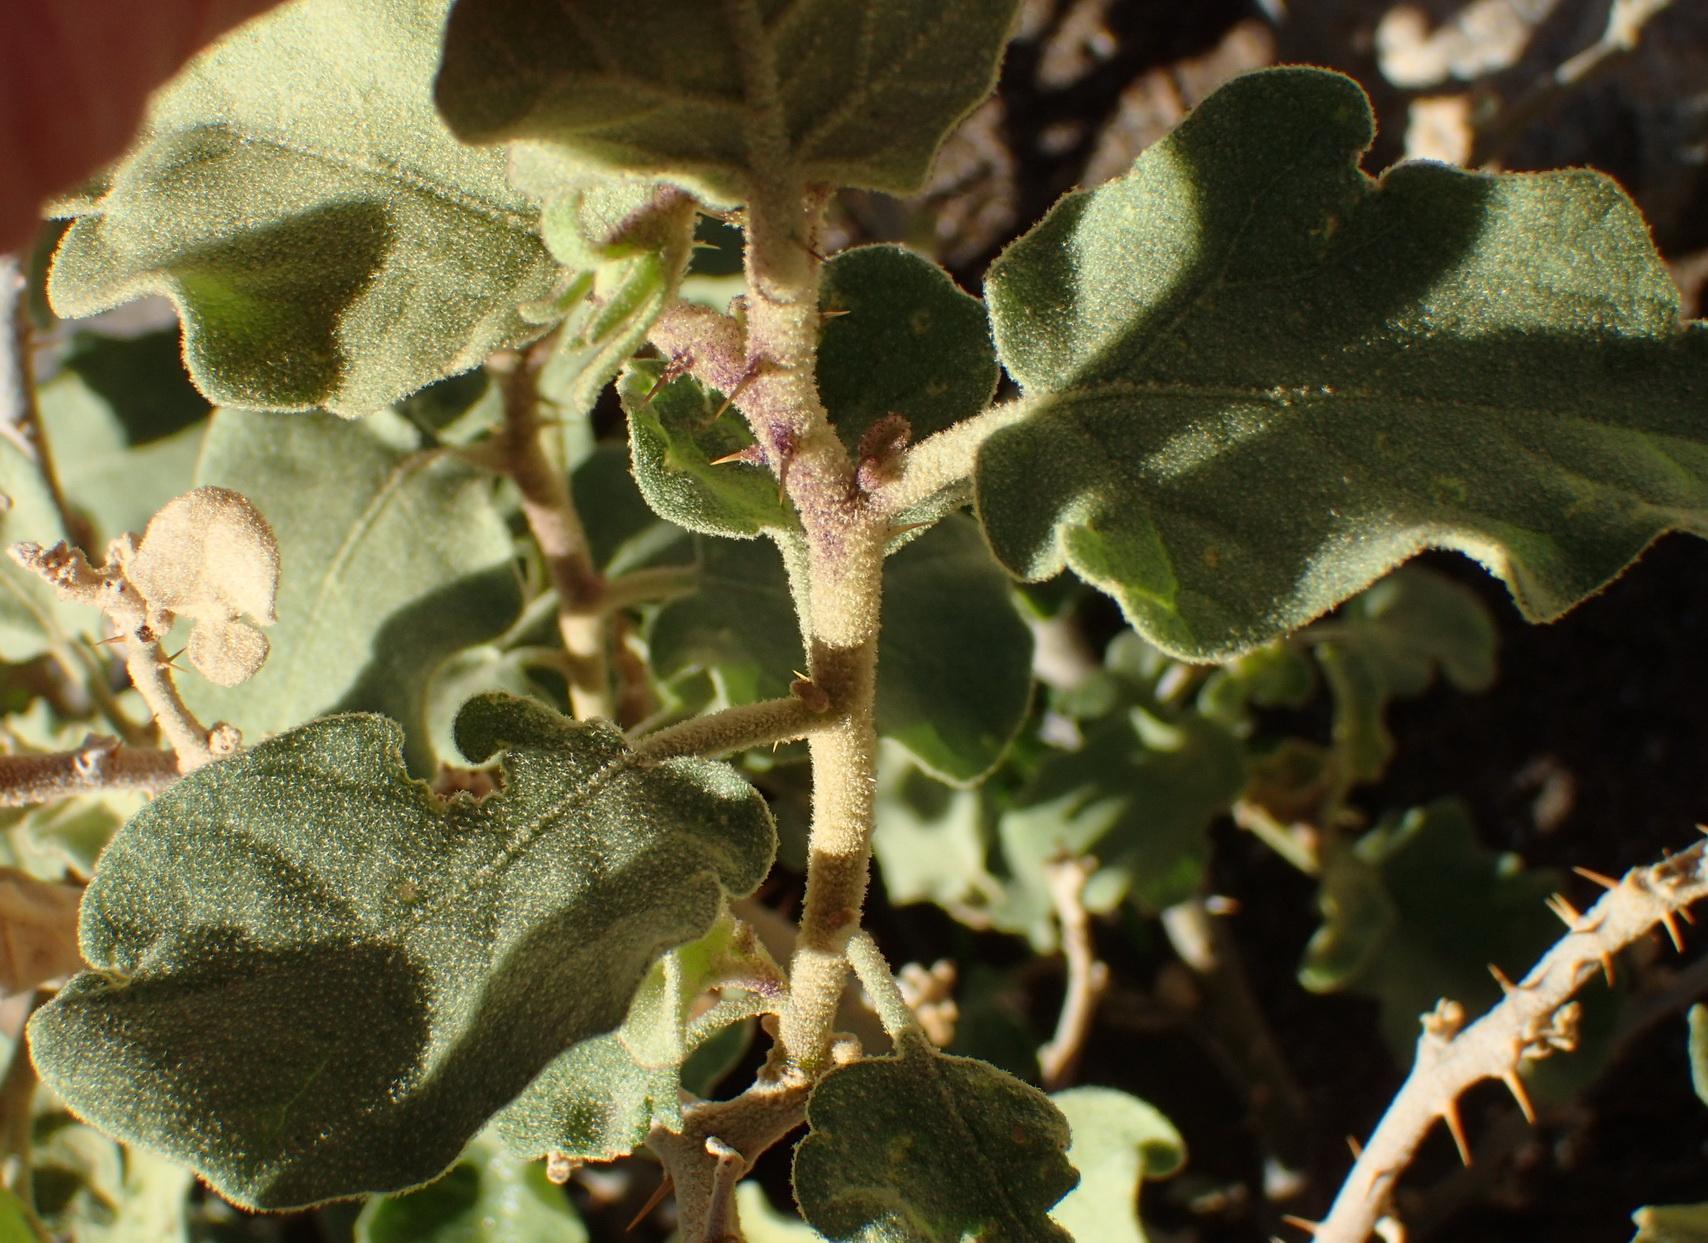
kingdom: Plantae
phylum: Tracheophyta
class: Magnoliopsida
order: Solanales
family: Solanaceae
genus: Solanum
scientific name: Solanum tomentosum
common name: Wild aubergine
